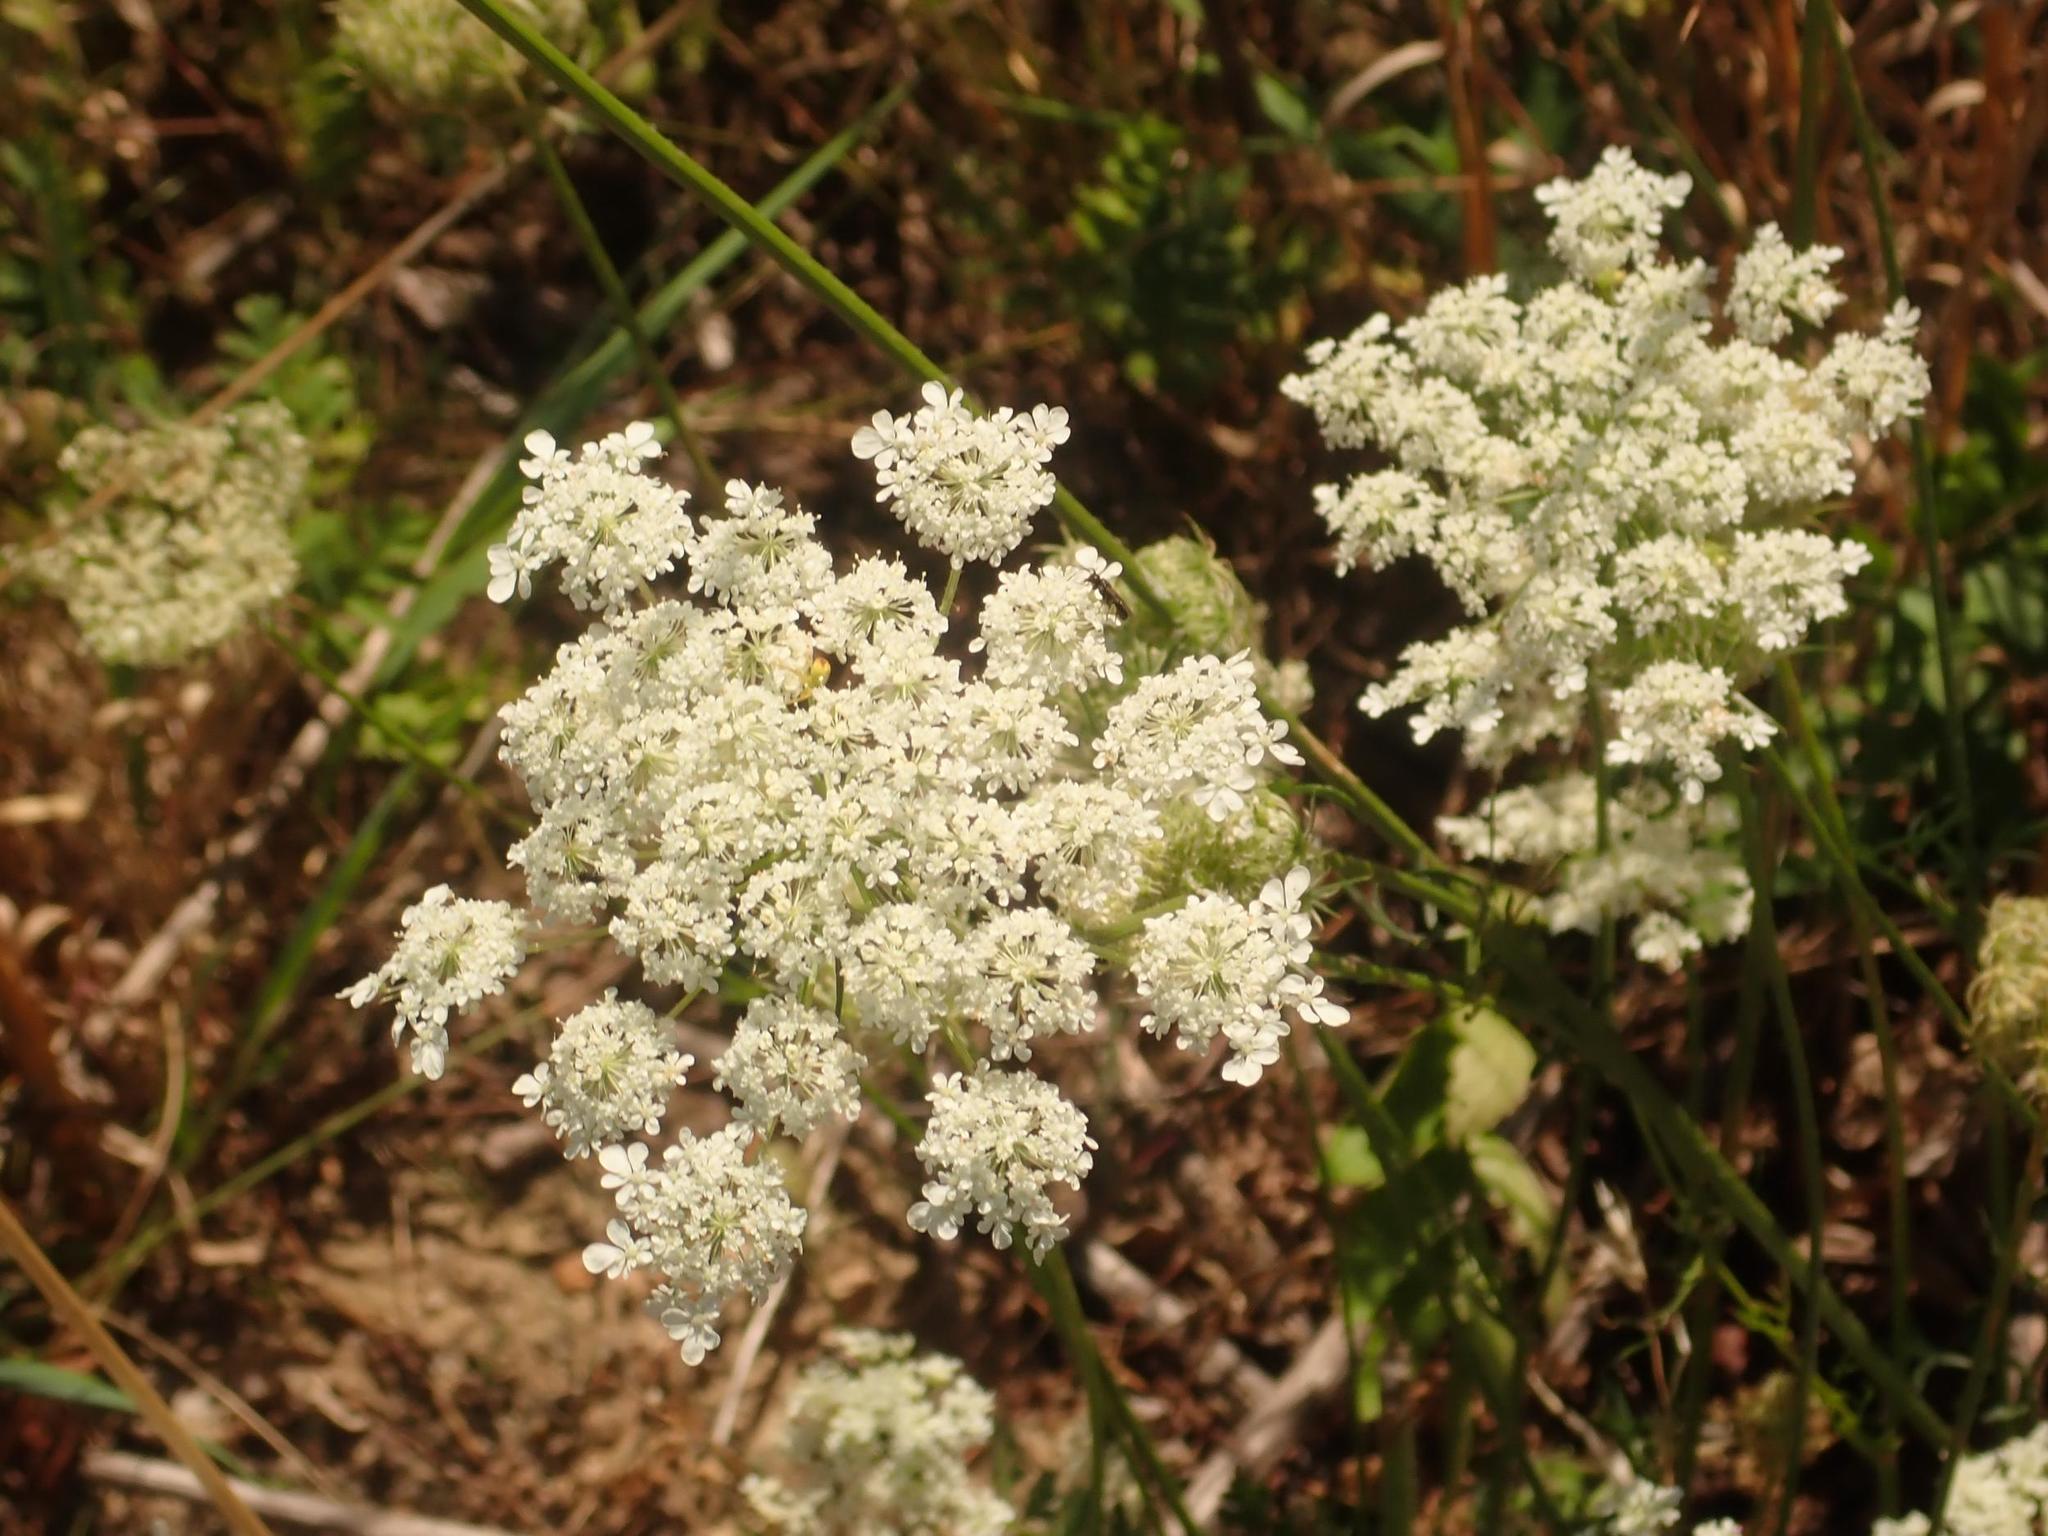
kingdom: Plantae
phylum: Tracheophyta
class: Magnoliopsida
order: Apiales
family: Apiaceae
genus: Daucus
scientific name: Daucus carota
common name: Wild carrot
